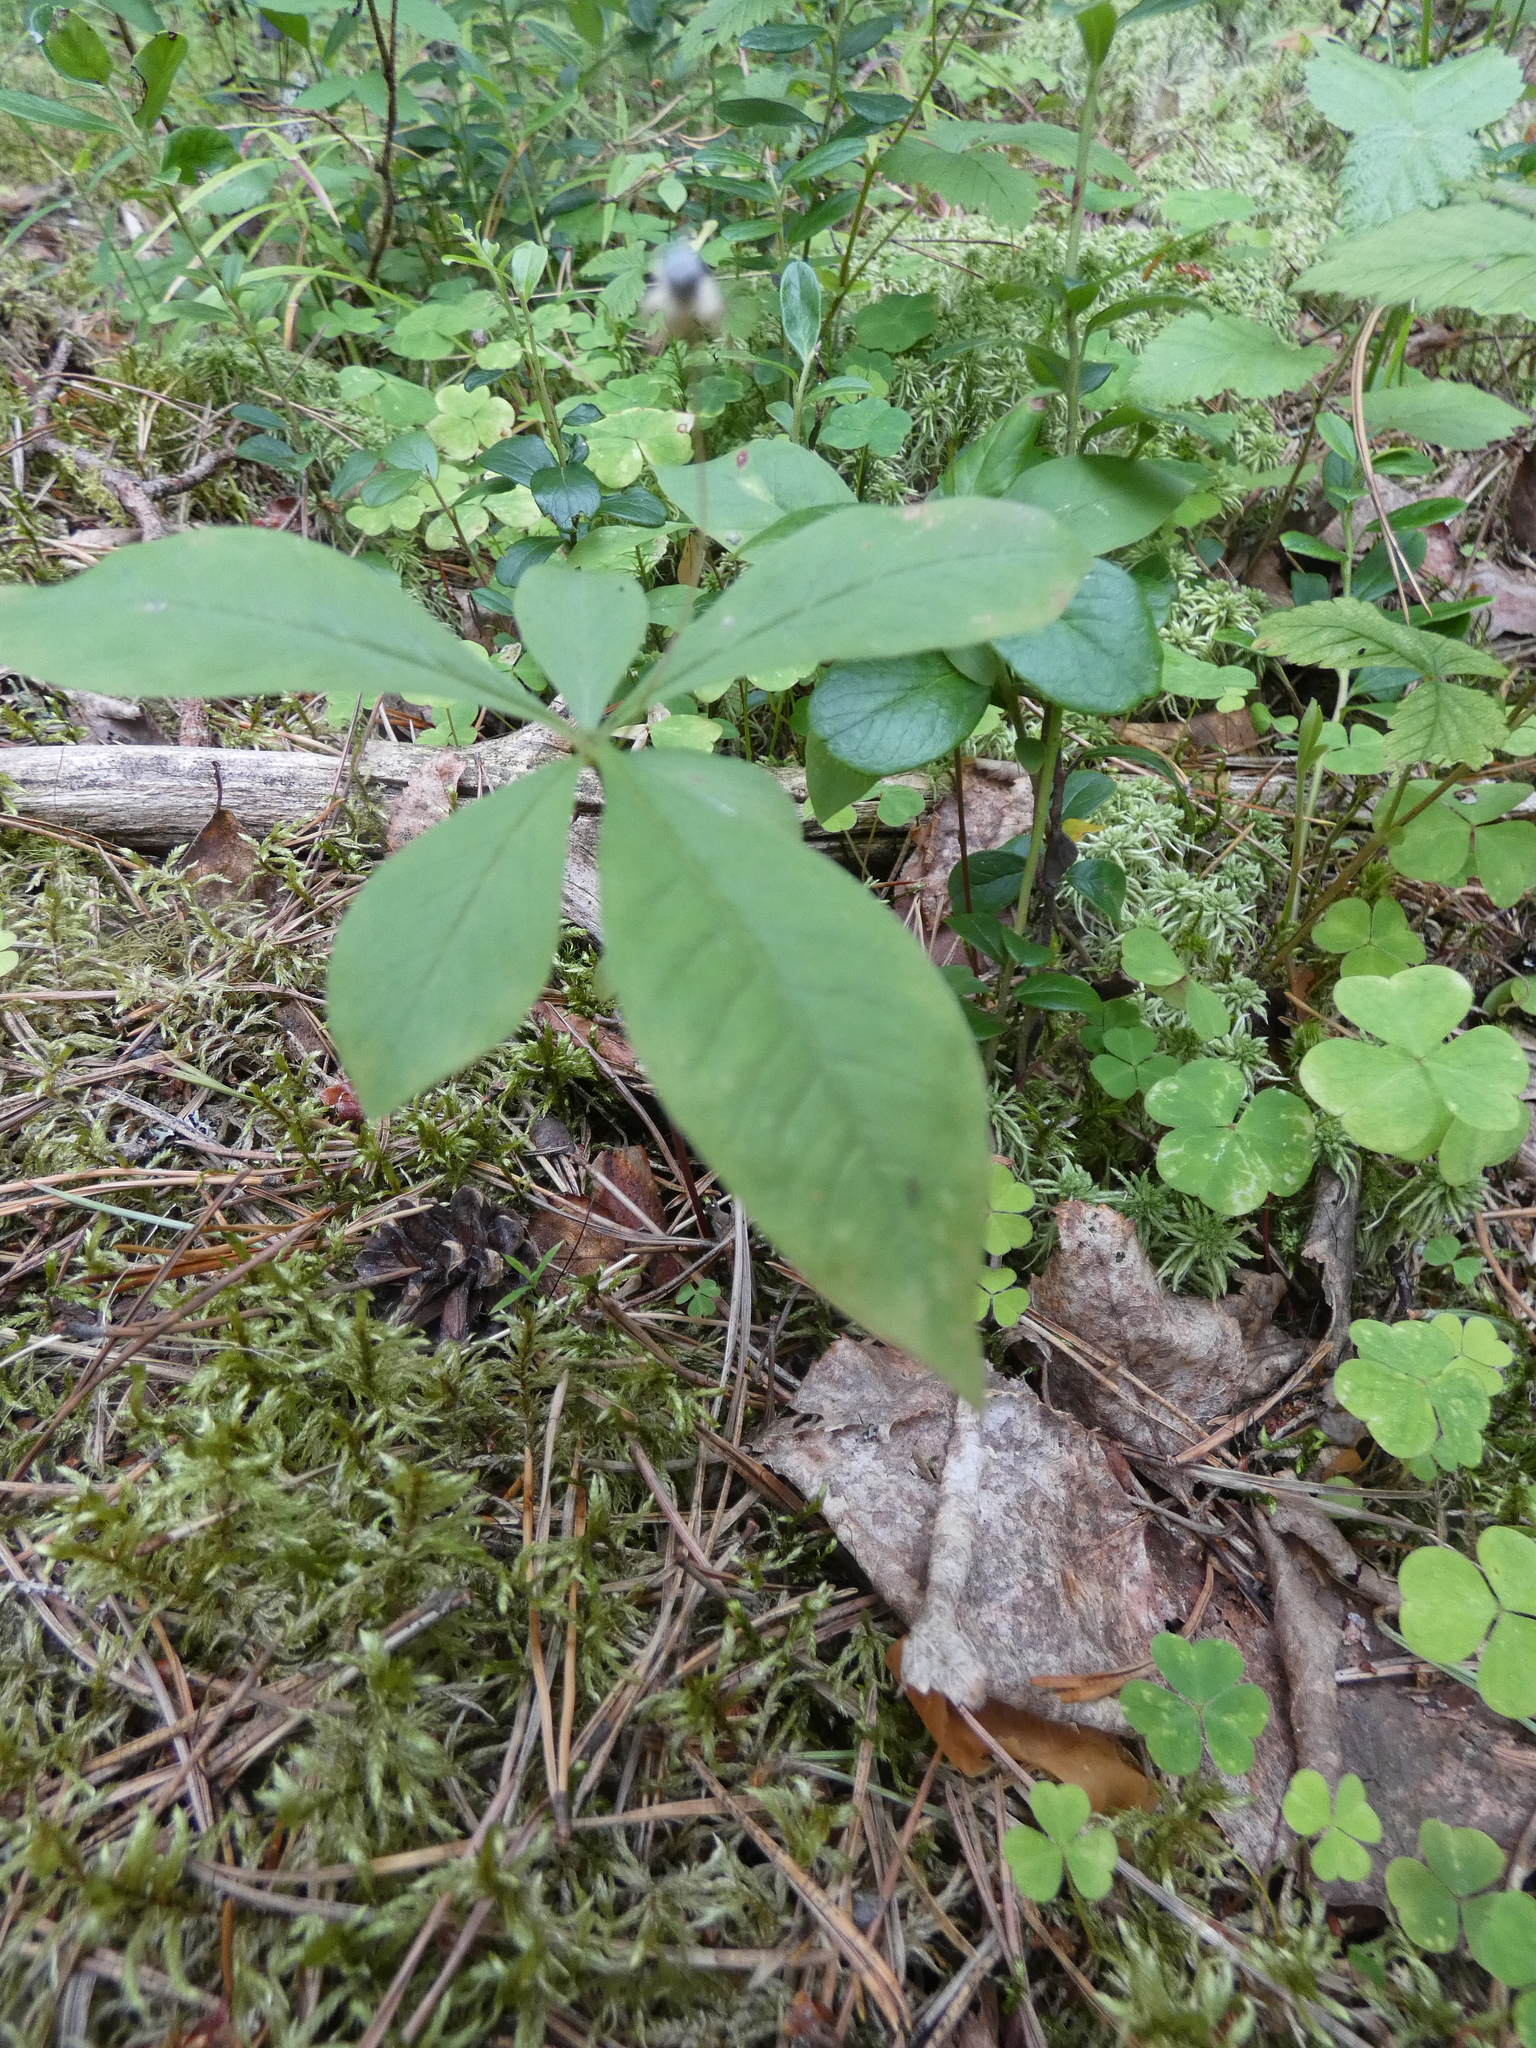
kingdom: Plantae
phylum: Tracheophyta
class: Magnoliopsida
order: Ericales
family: Primulaceae
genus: Lysimachia
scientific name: Lysimachia europaea
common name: Arctic starflower
